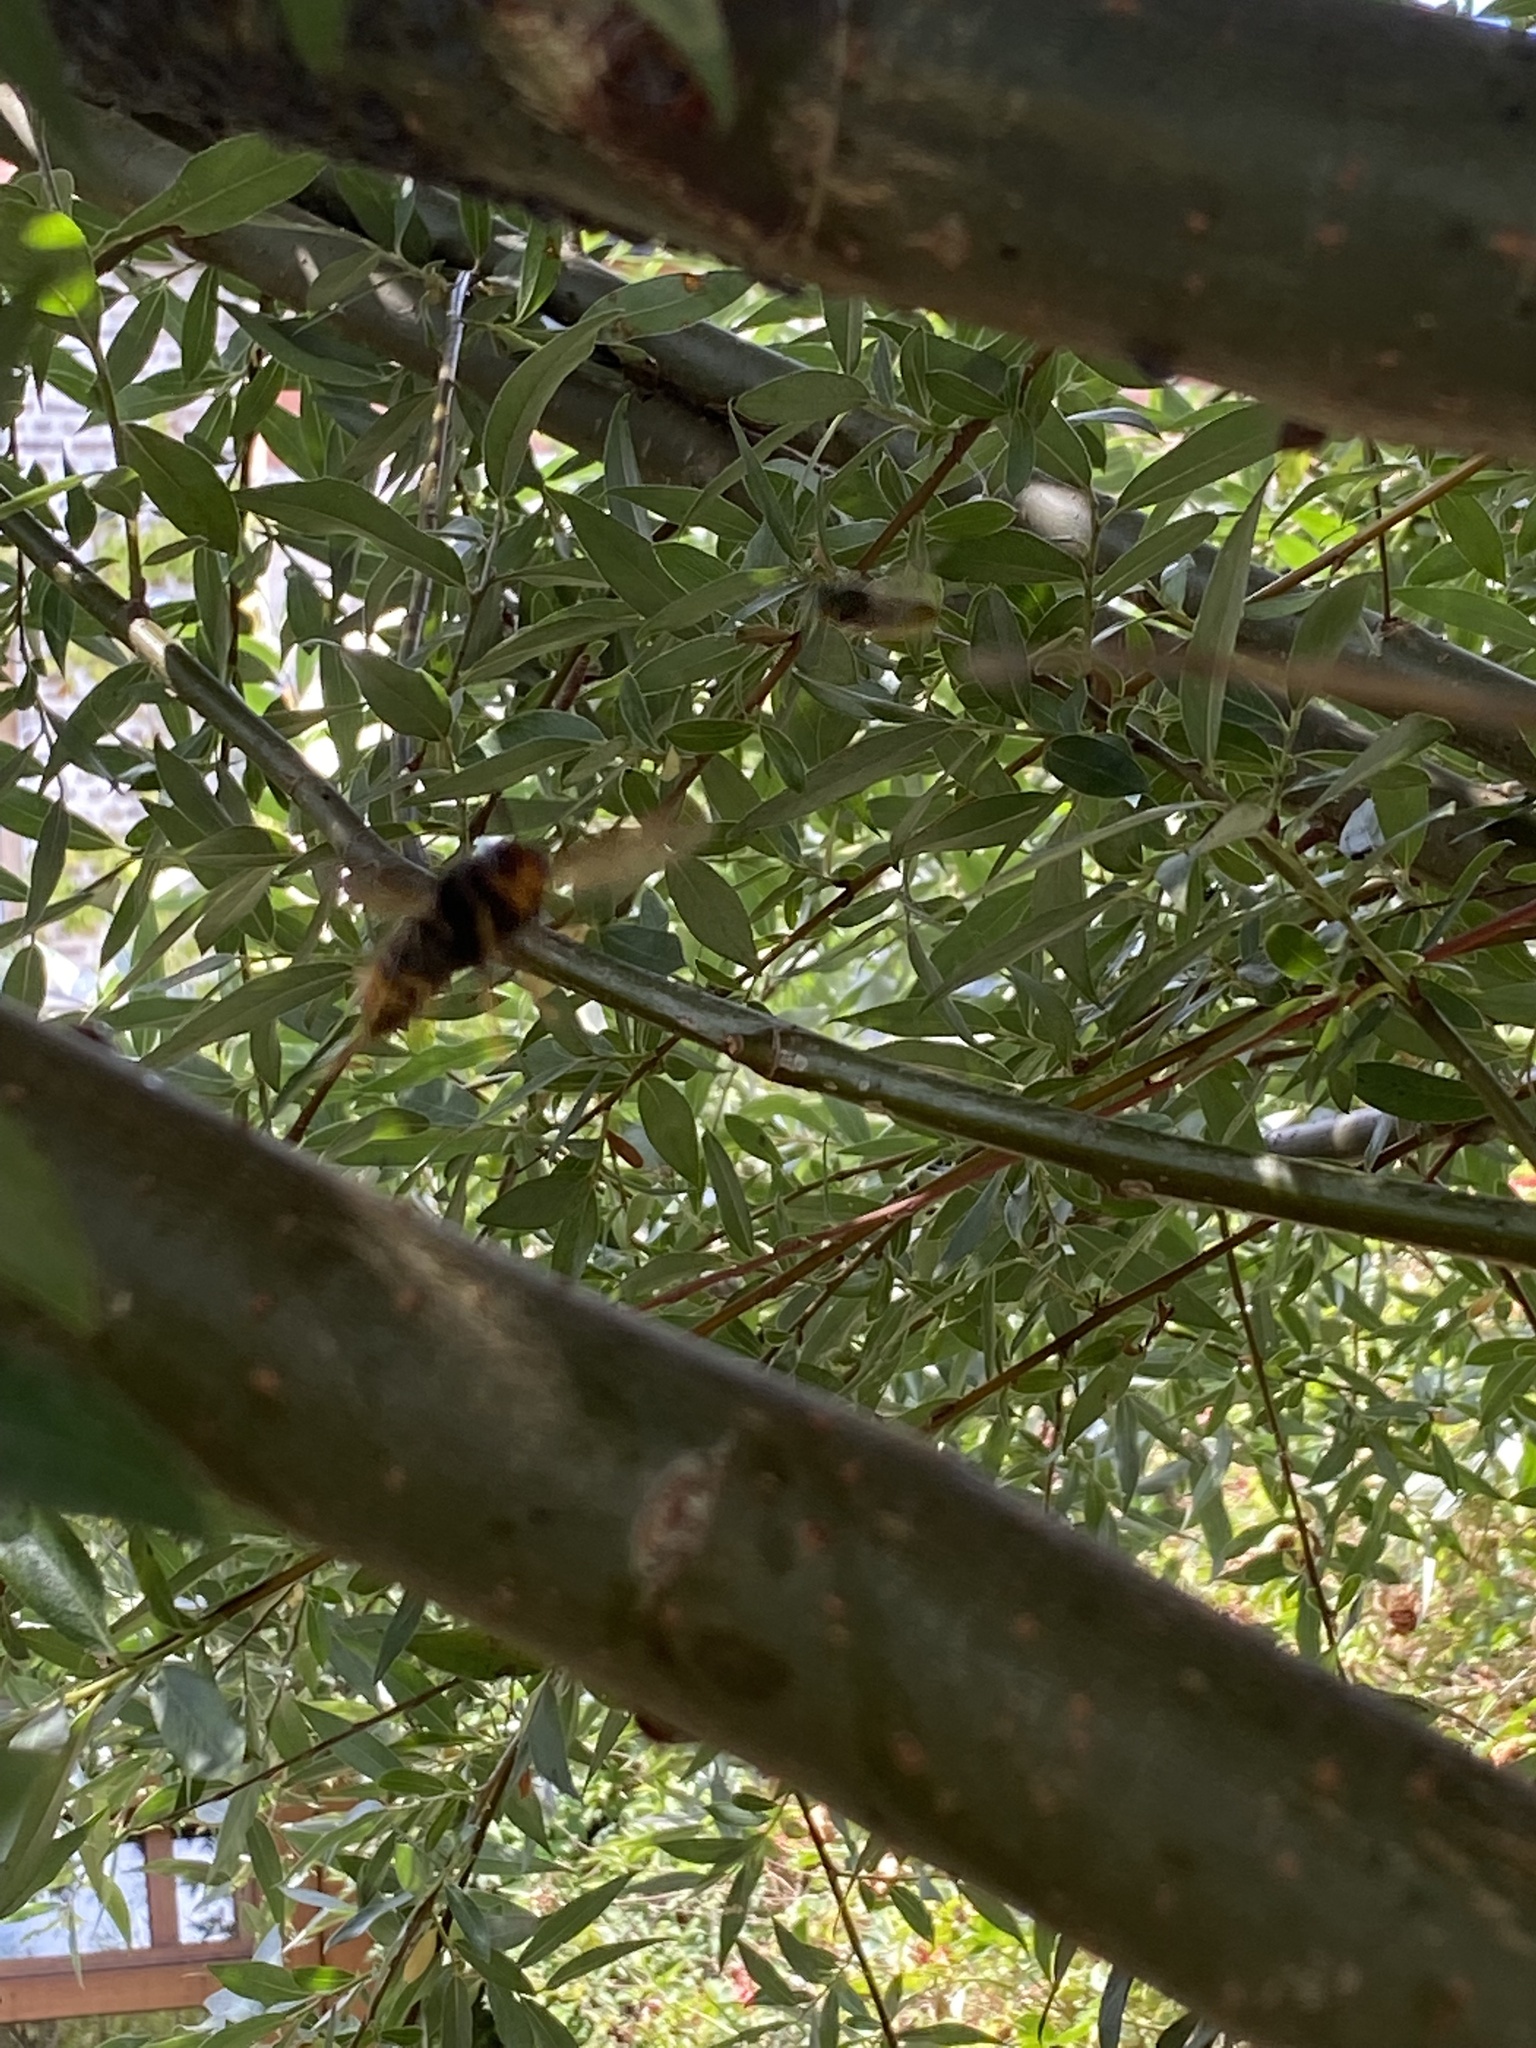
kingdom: Animalia
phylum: Arthropoda
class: Insecta
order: Hymenoptera
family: Vespidae
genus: Vespa
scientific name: Vespa velutina
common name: Asian hornet
